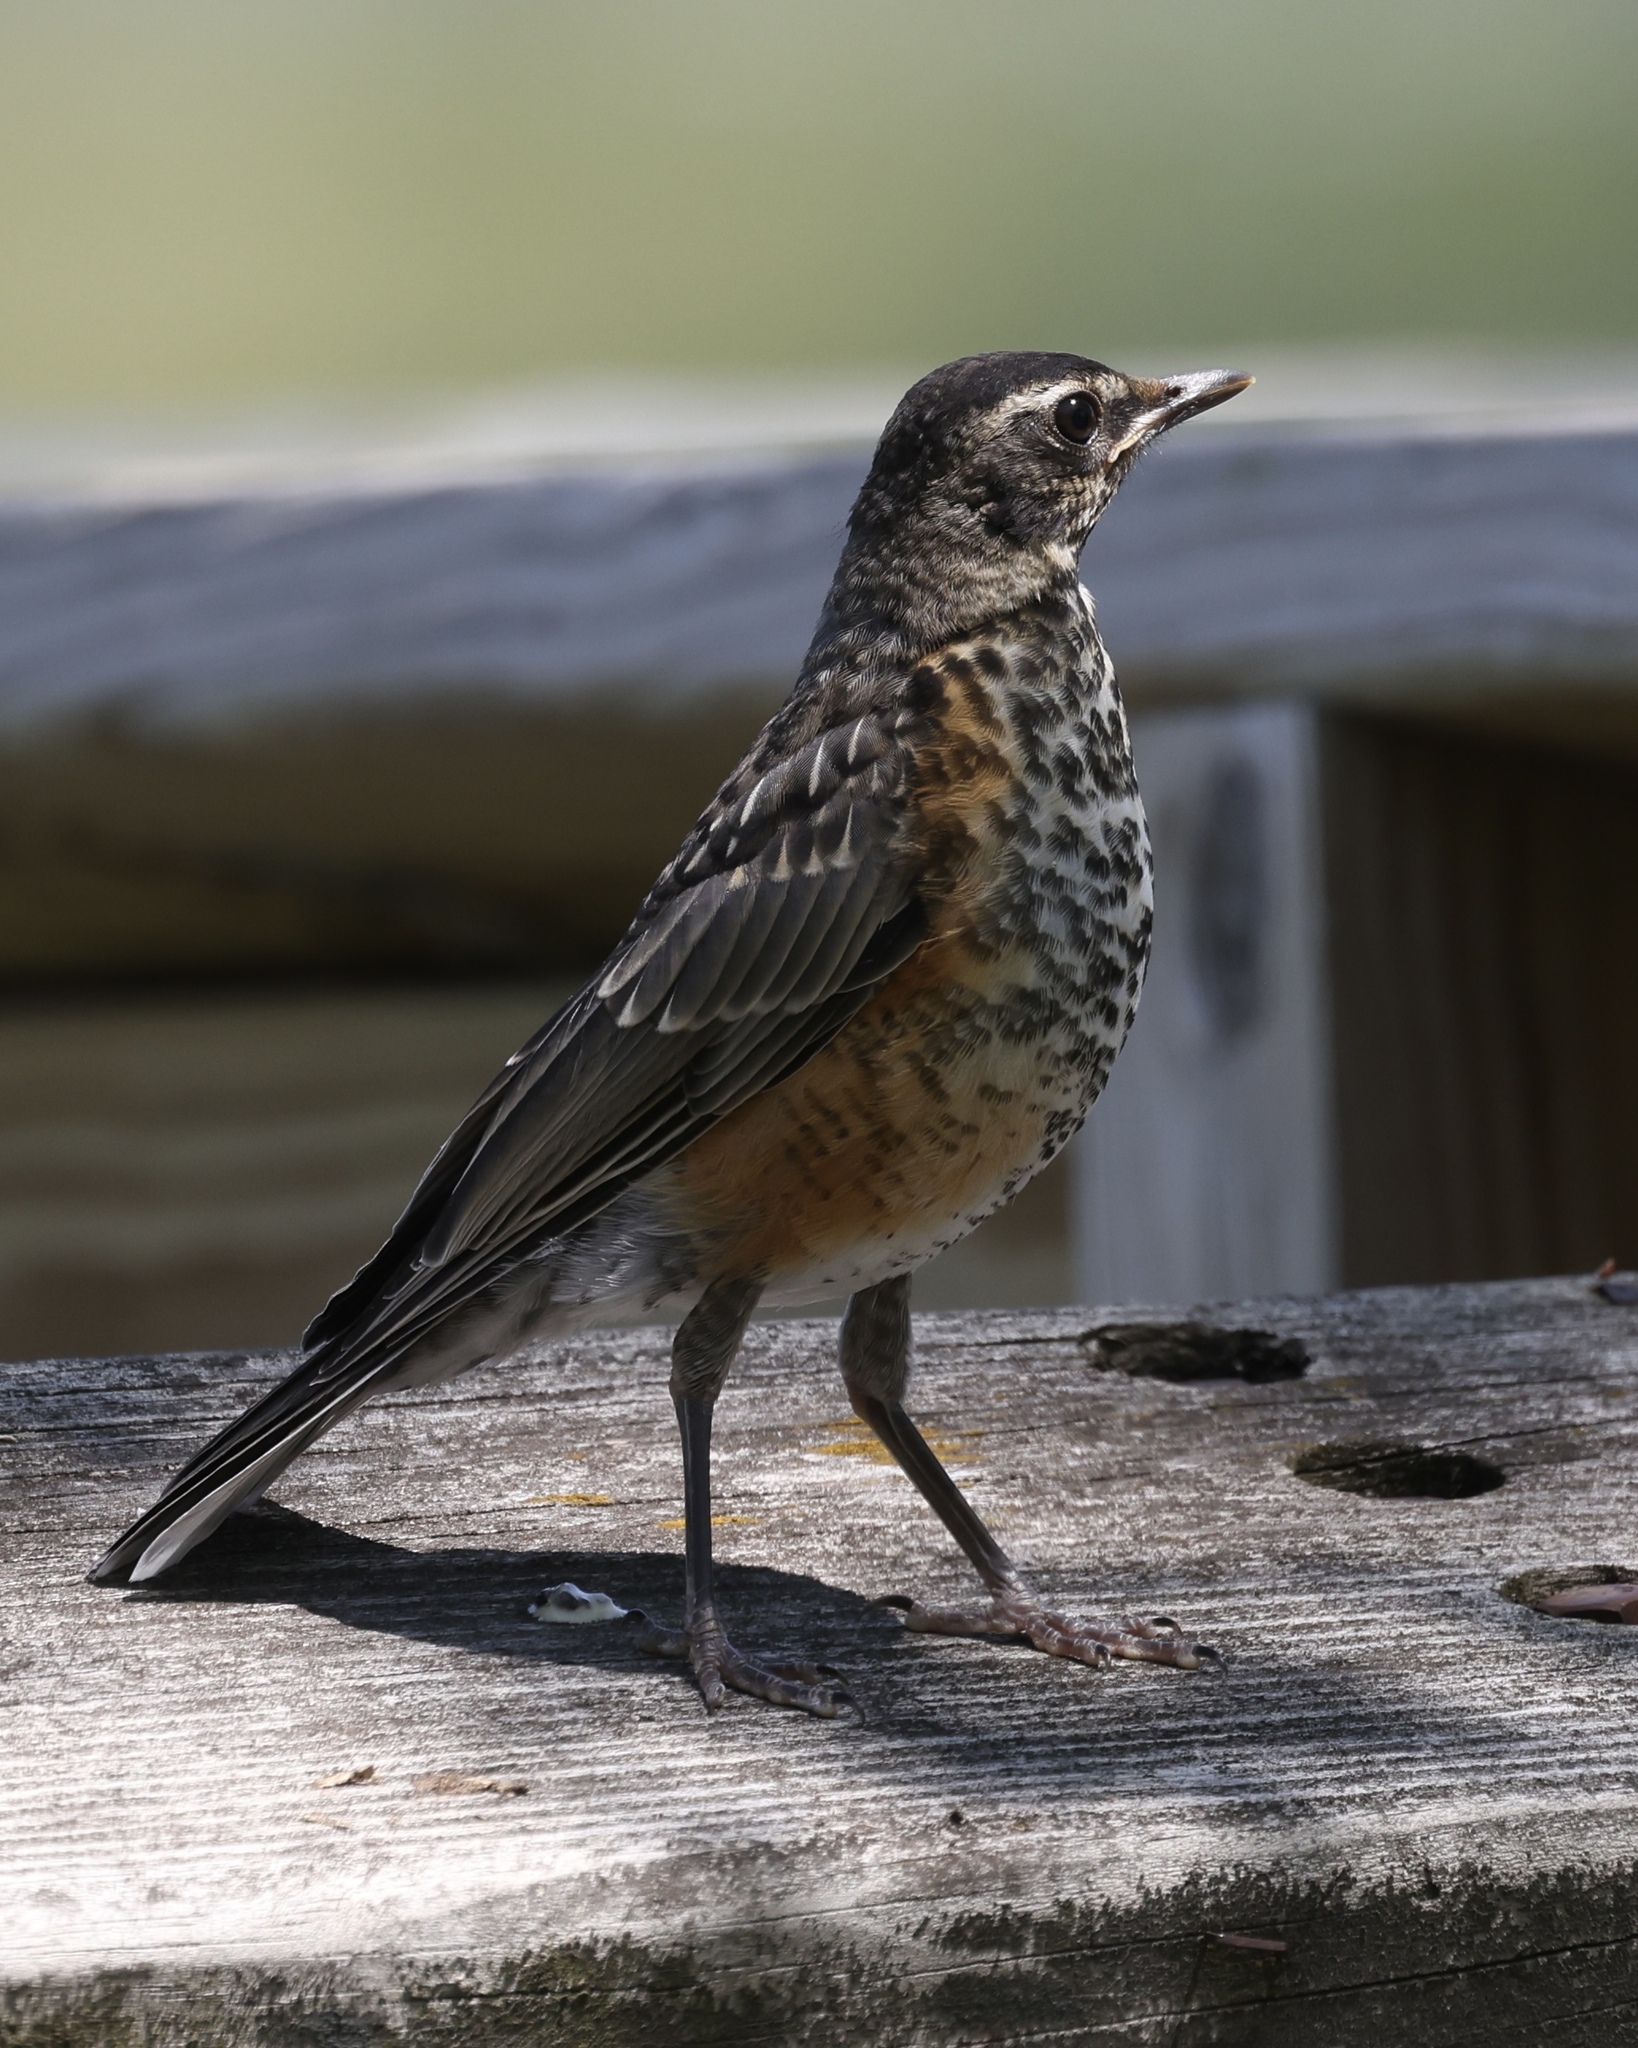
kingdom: Animalia
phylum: Chordata
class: Aves
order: Passeriformes
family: Turdidae
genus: Turdus
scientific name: Turdus migratorius
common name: American robin
